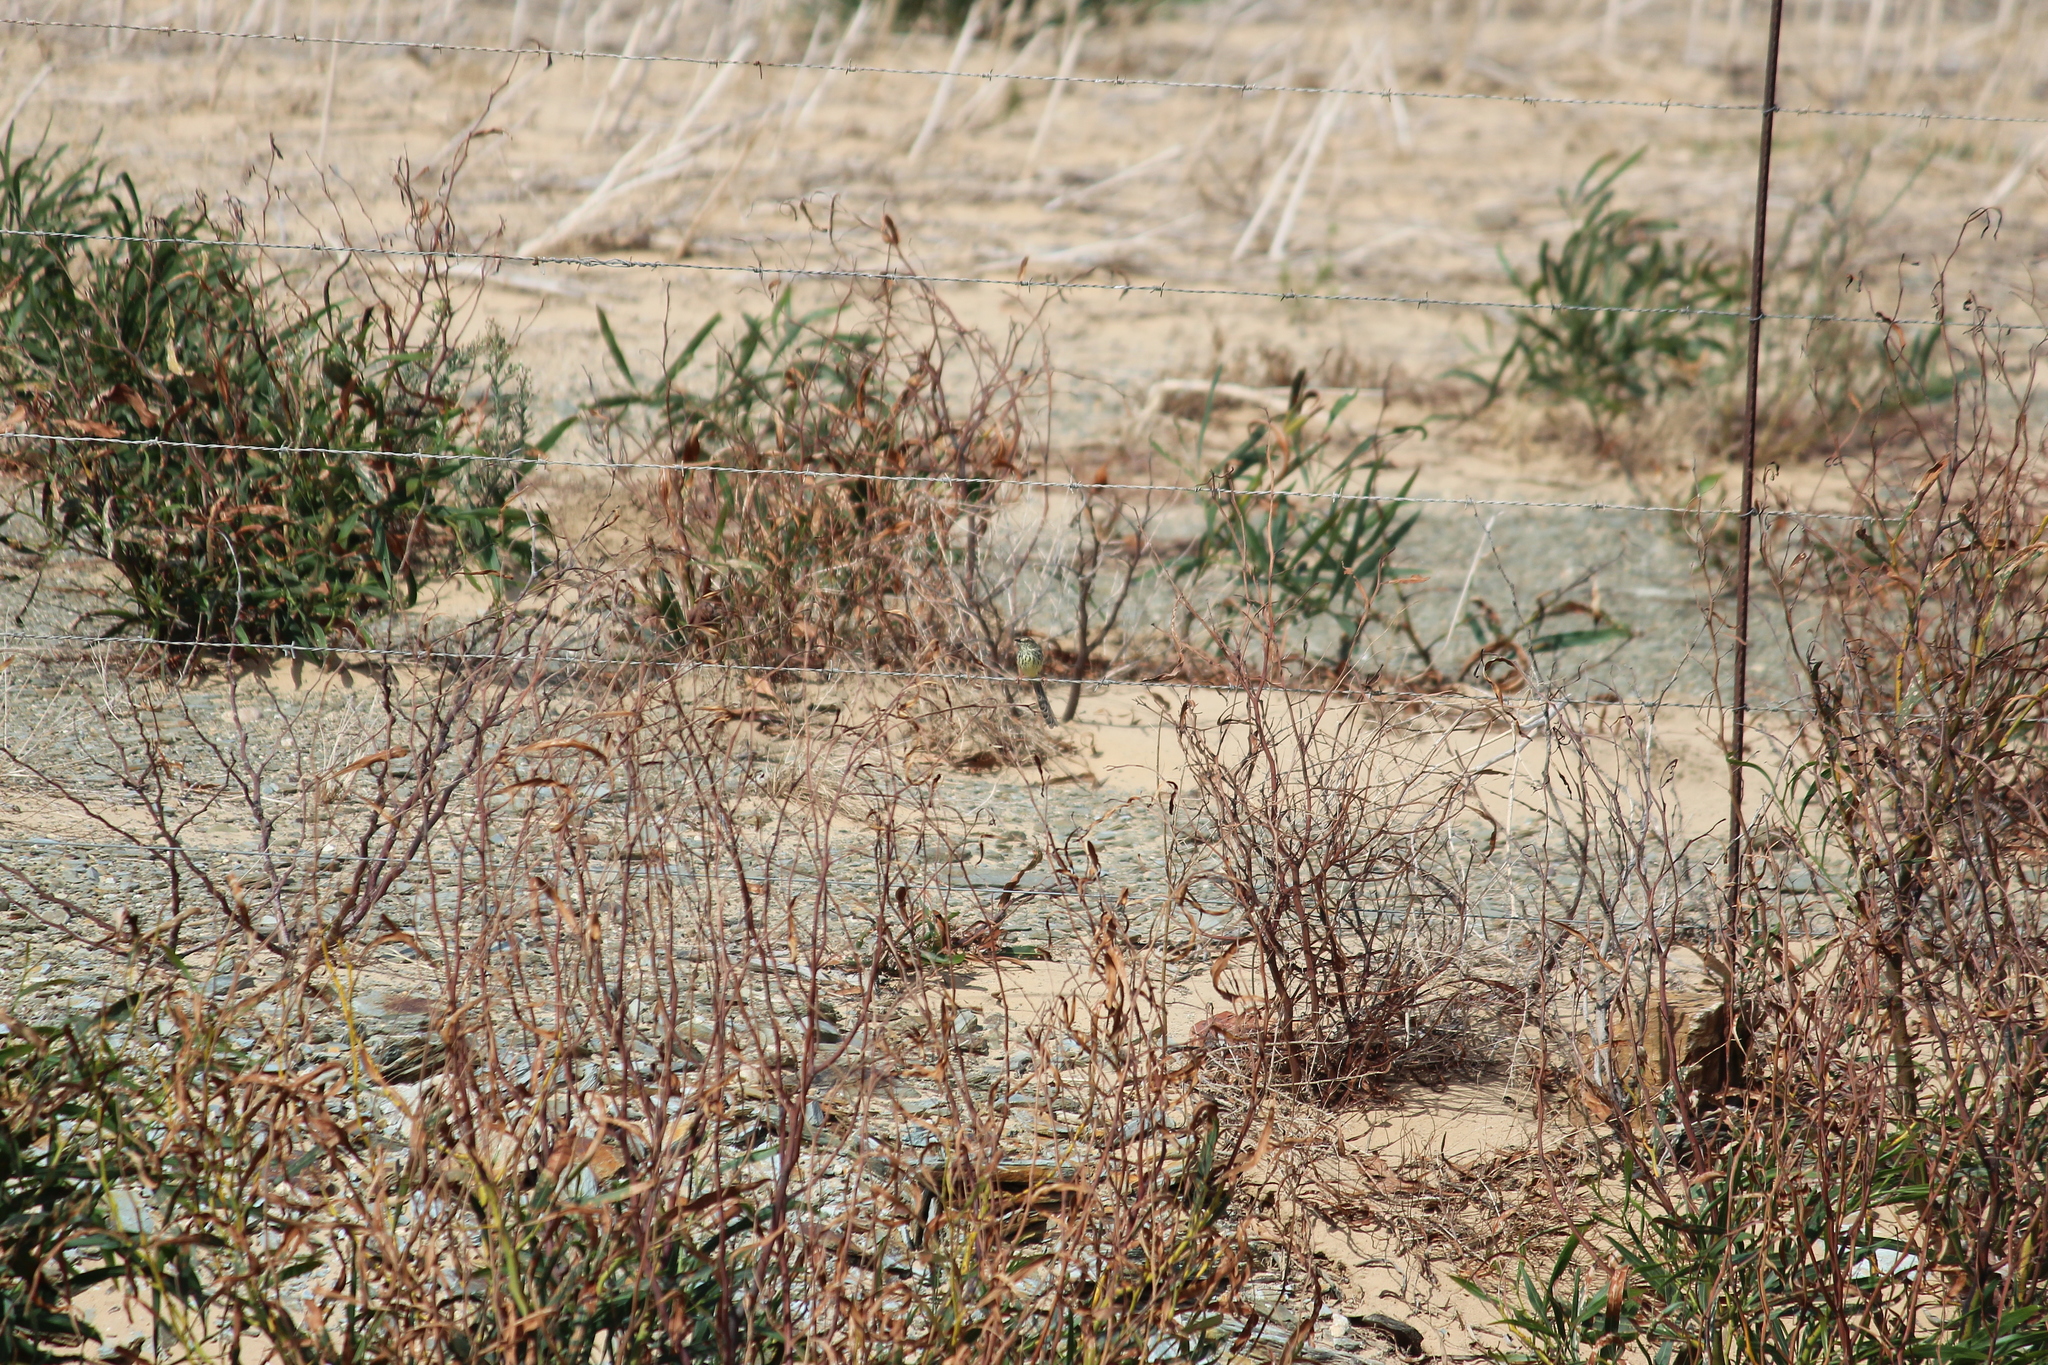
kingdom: Animalia
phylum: Chordata
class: Aves
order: Passeriformes
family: Cisticolidae
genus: Prinia
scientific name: Prinia maculosa
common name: Karoo prinia
